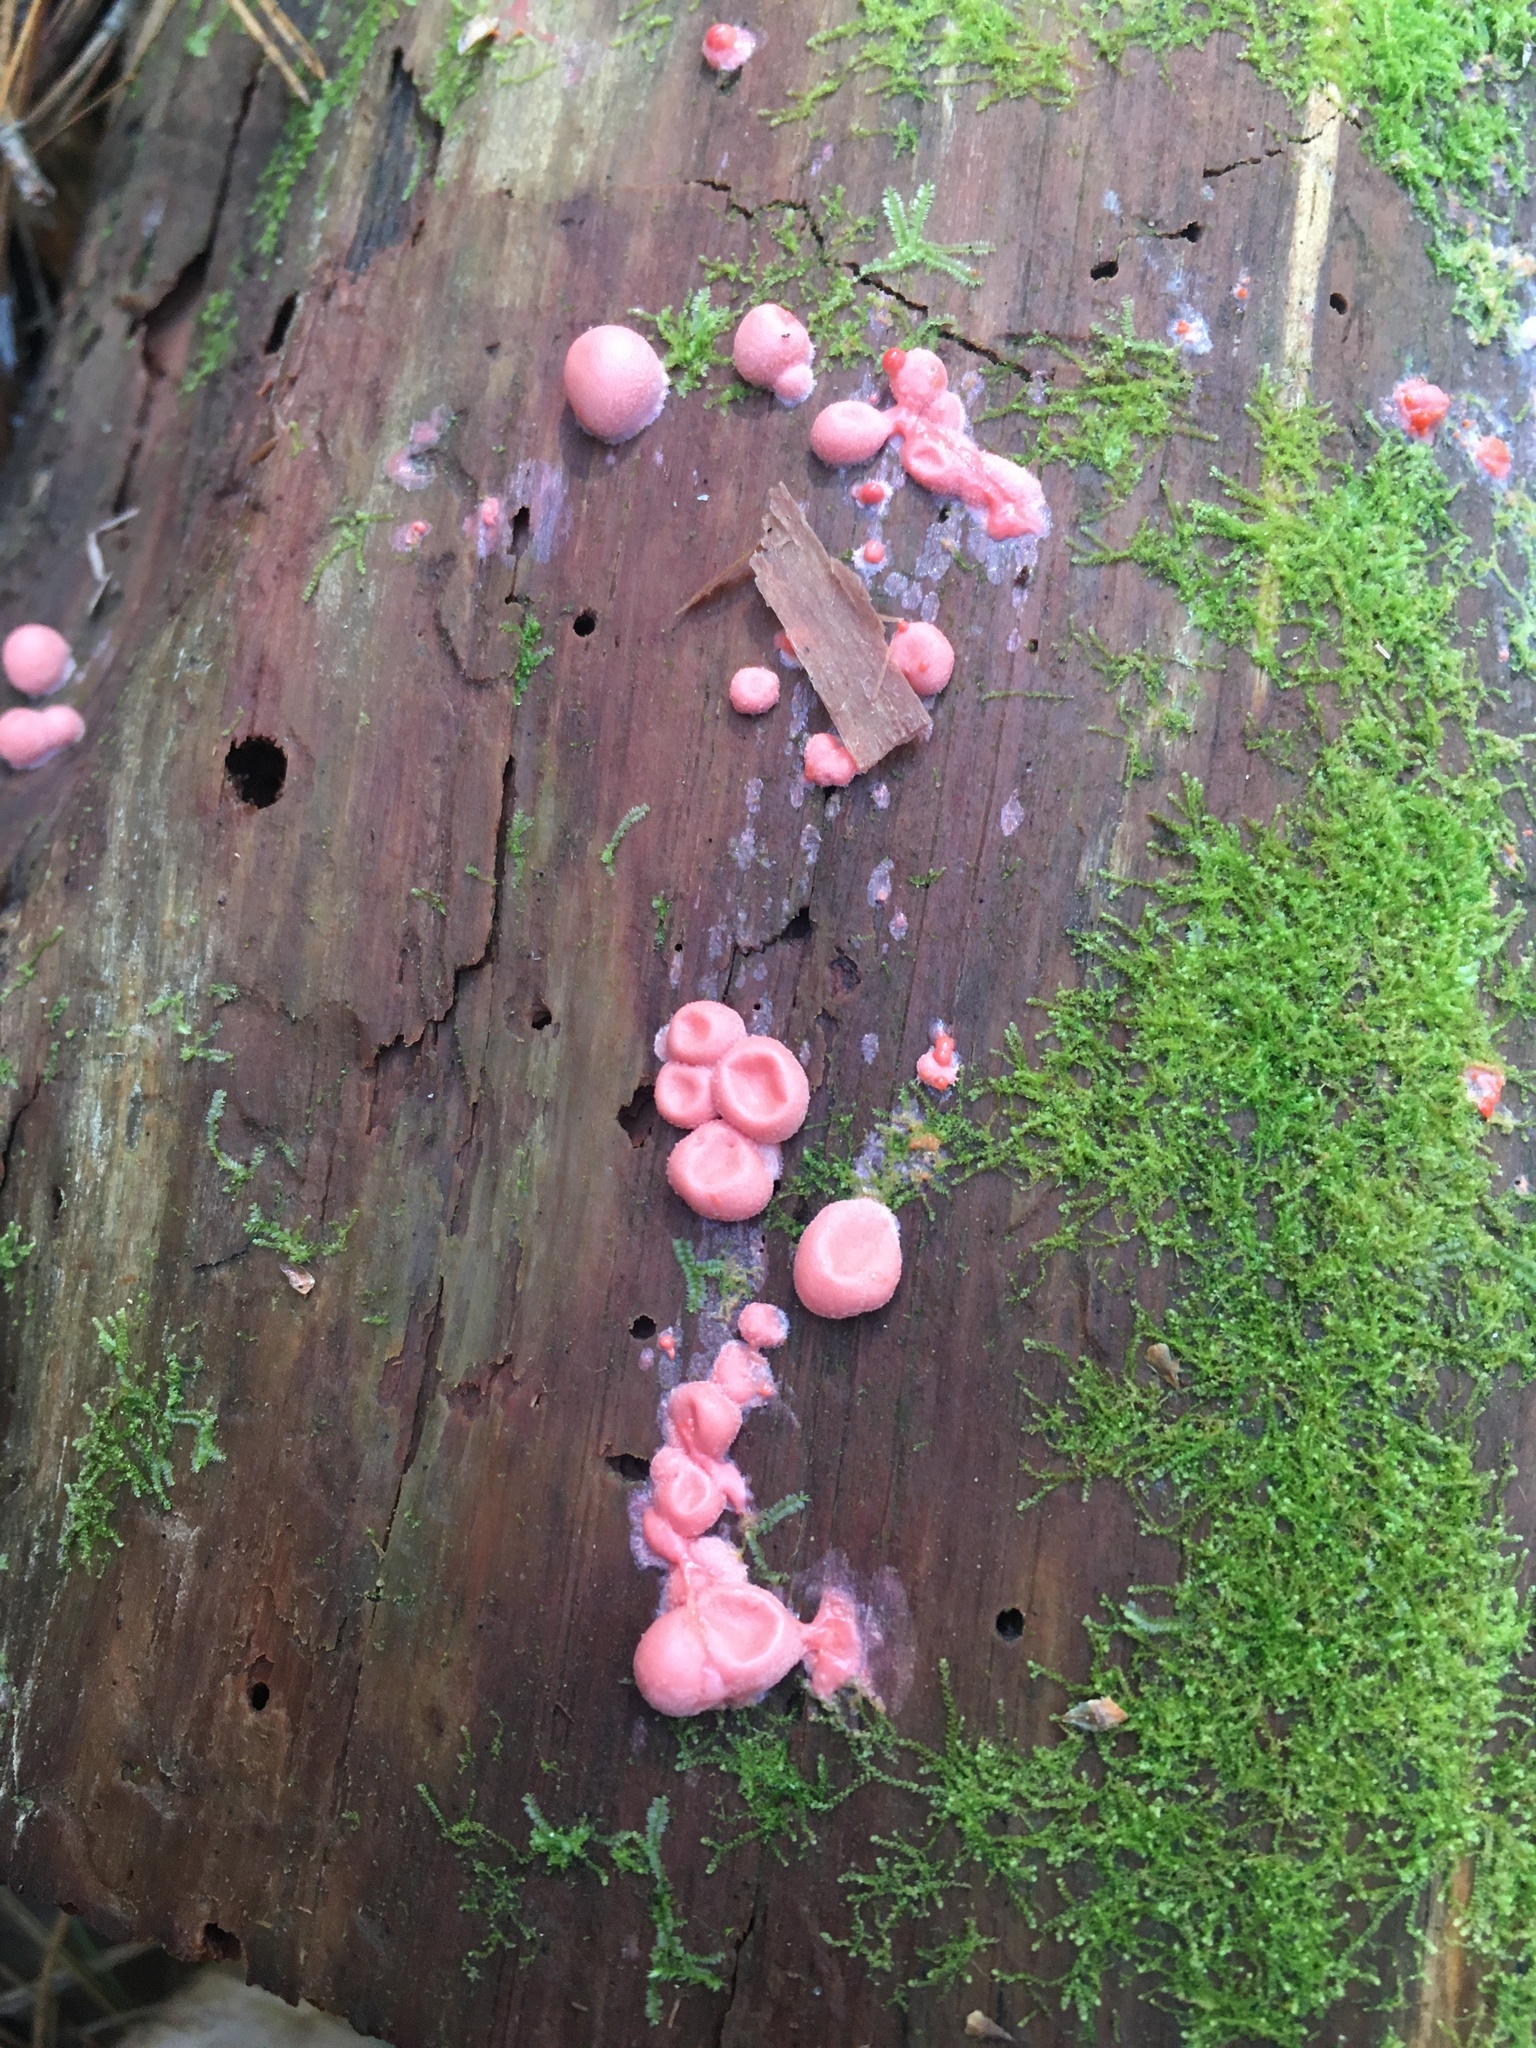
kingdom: Protozoa
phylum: Mycetozoa
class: Myxomycetes
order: Cribrariales
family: Tubiferaceae
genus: Lycogala
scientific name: Lycogala epidendrum
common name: Wolf's milk
